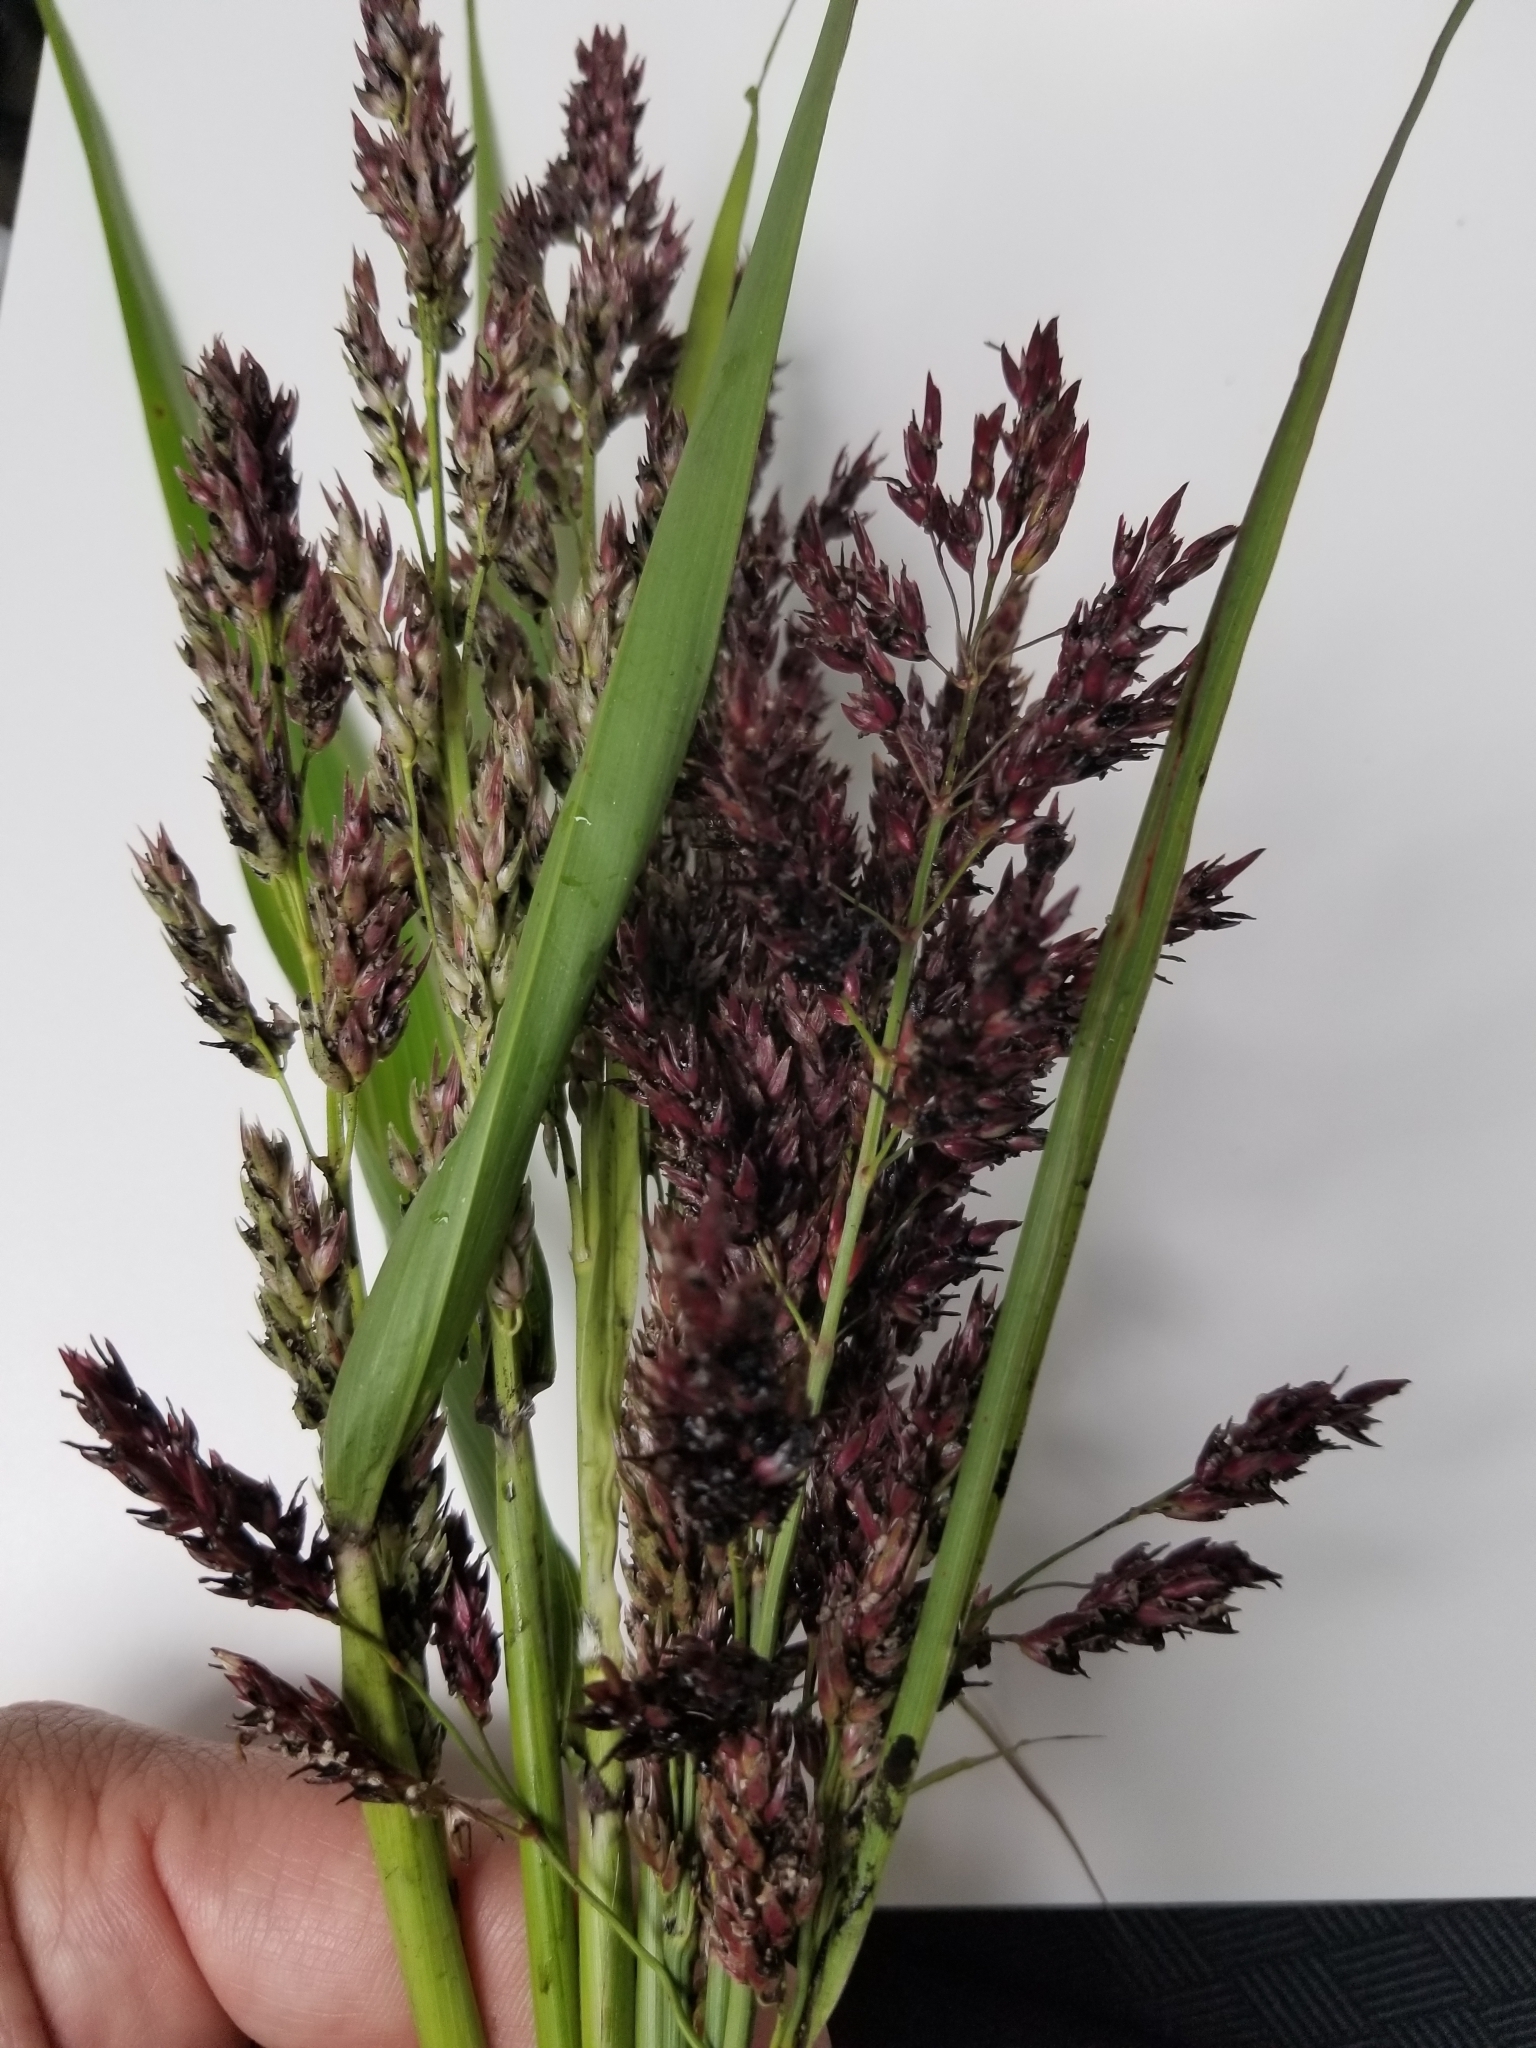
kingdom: Plantae
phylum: Tracheophyta
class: Liliopsida
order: Poales
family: Poaceae
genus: Sorghum
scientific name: Sorghum halepense
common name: Johnson-grass
